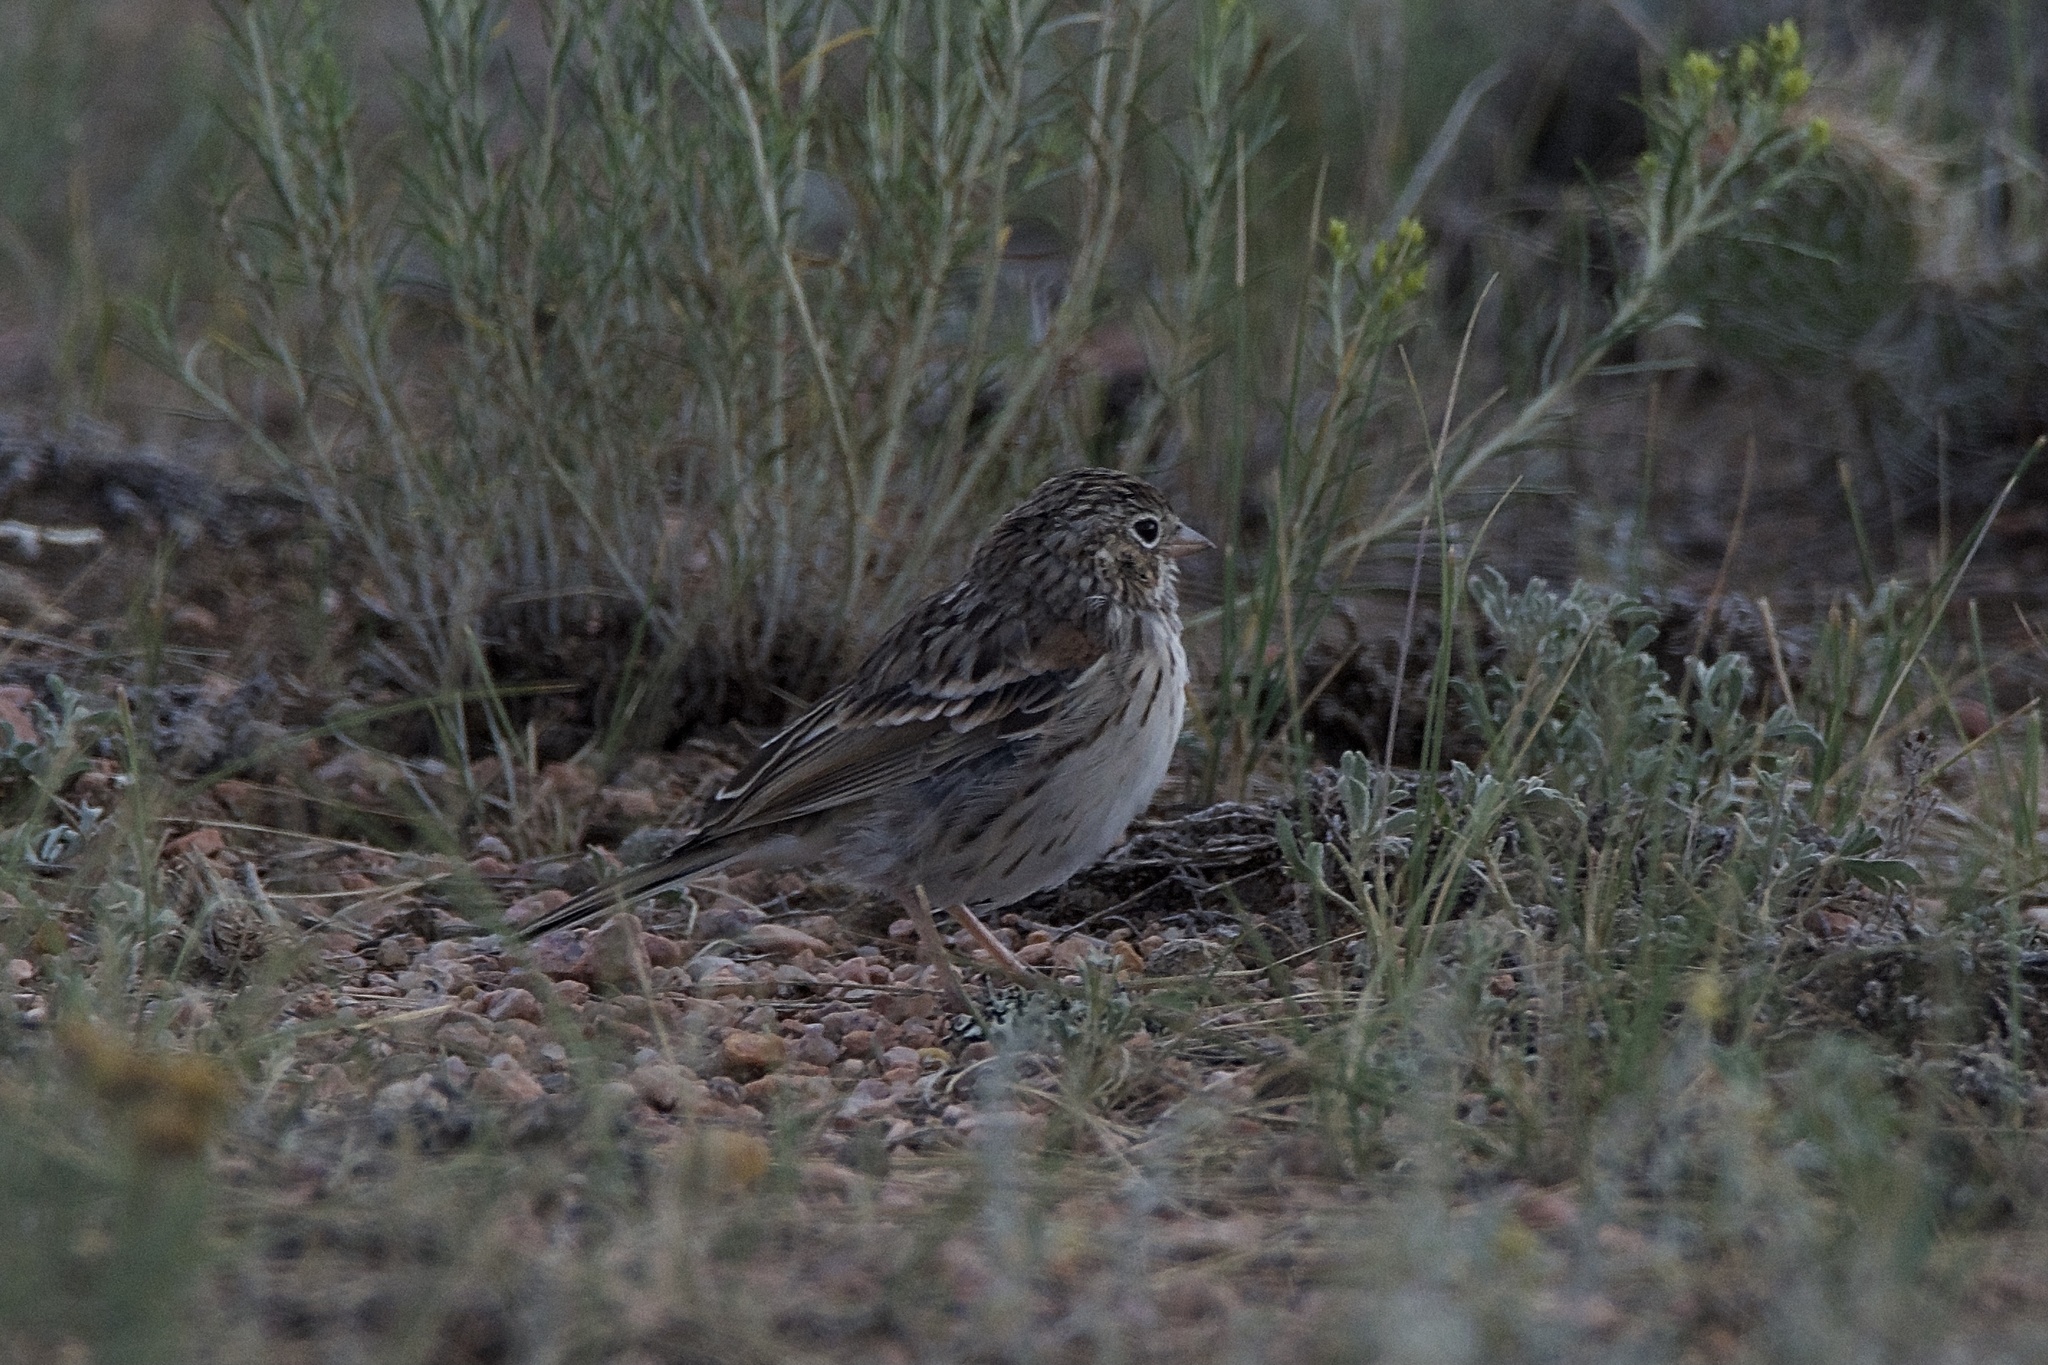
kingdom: Animalia
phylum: Chordata
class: Aves
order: Passeriformes
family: Passerellidae
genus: Pooecetes
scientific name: Pooecetes gramineus
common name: Vesper sparrow
